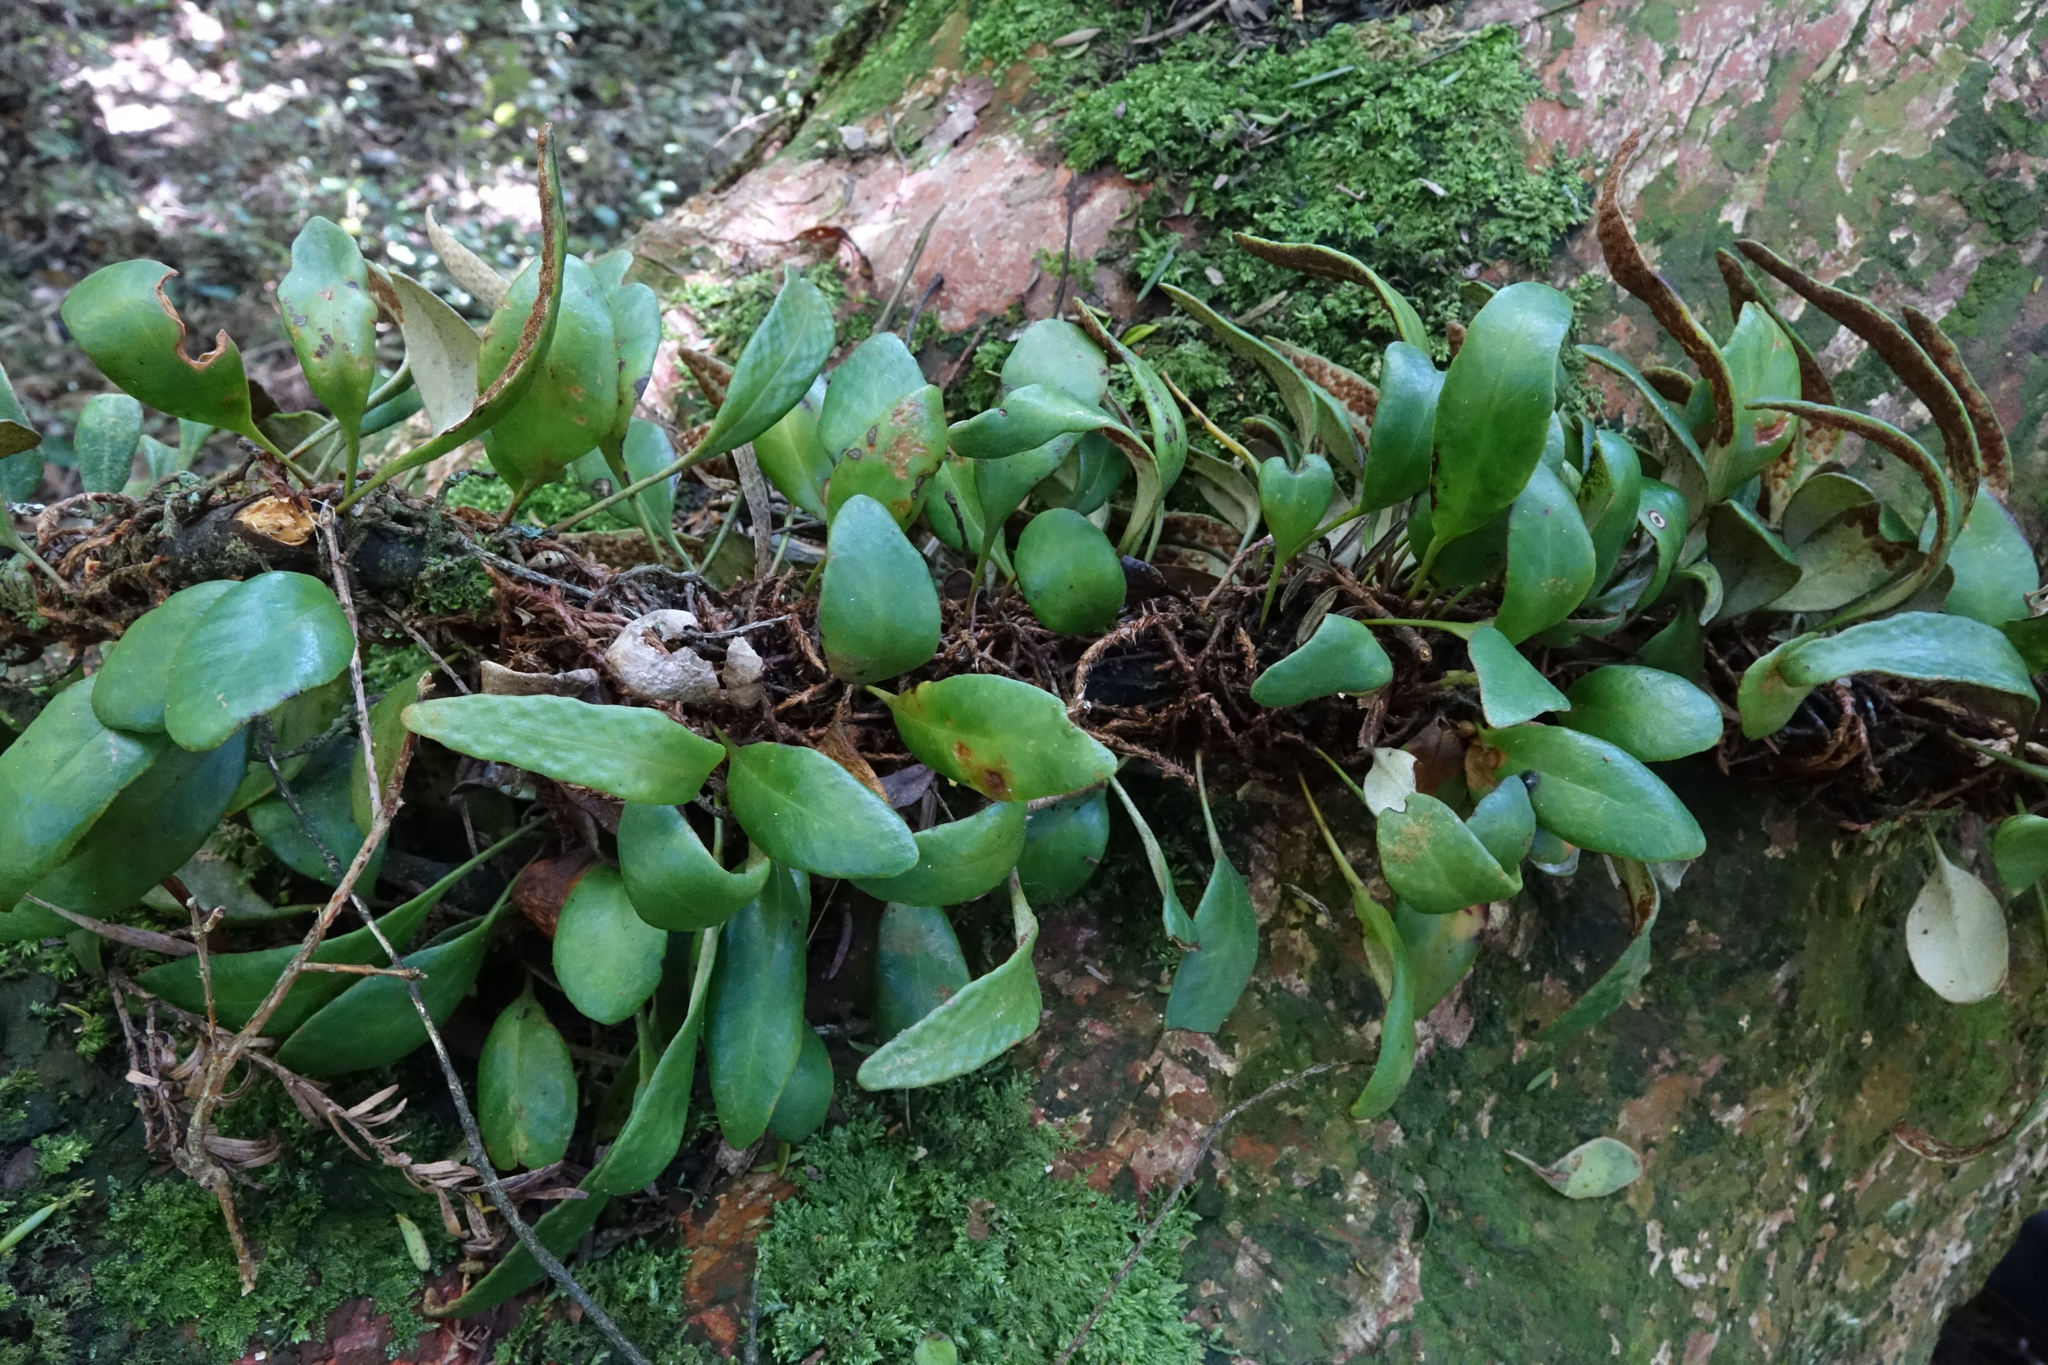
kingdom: Plantae
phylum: Tracheophyta
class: Polypodiopsida
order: Polypodiales
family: Polypodiaceae
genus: Pyrrosia
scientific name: Pyrrosia eleagnifolia
